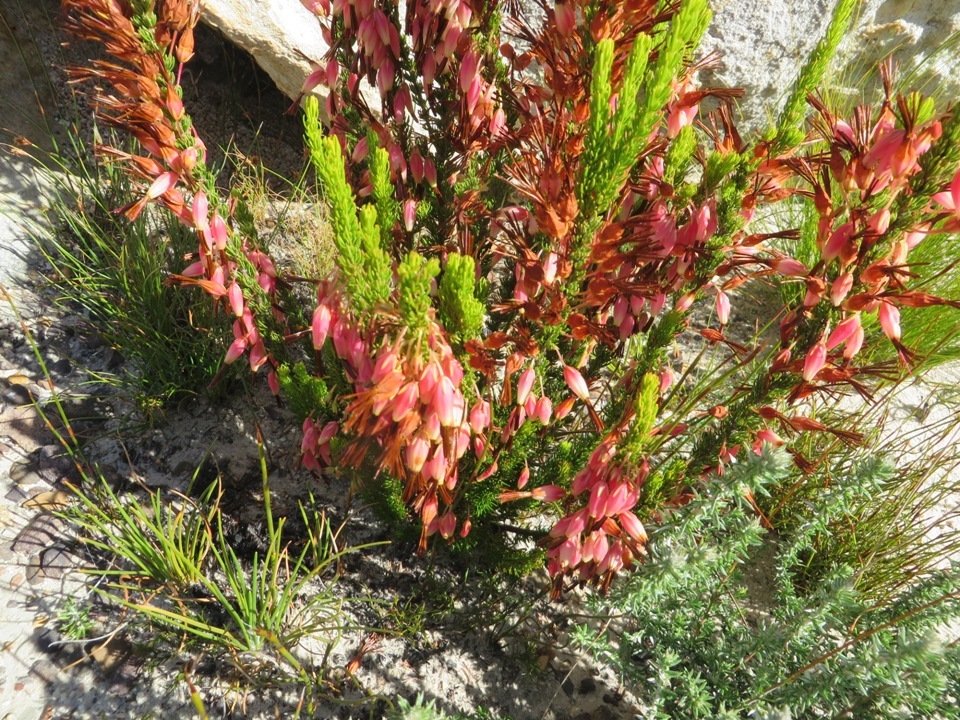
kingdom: Plantae
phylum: Tracheophyta
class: Magnoliopsida
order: Ericales
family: Ericaceae
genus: Erica
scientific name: Erica plukenetii
